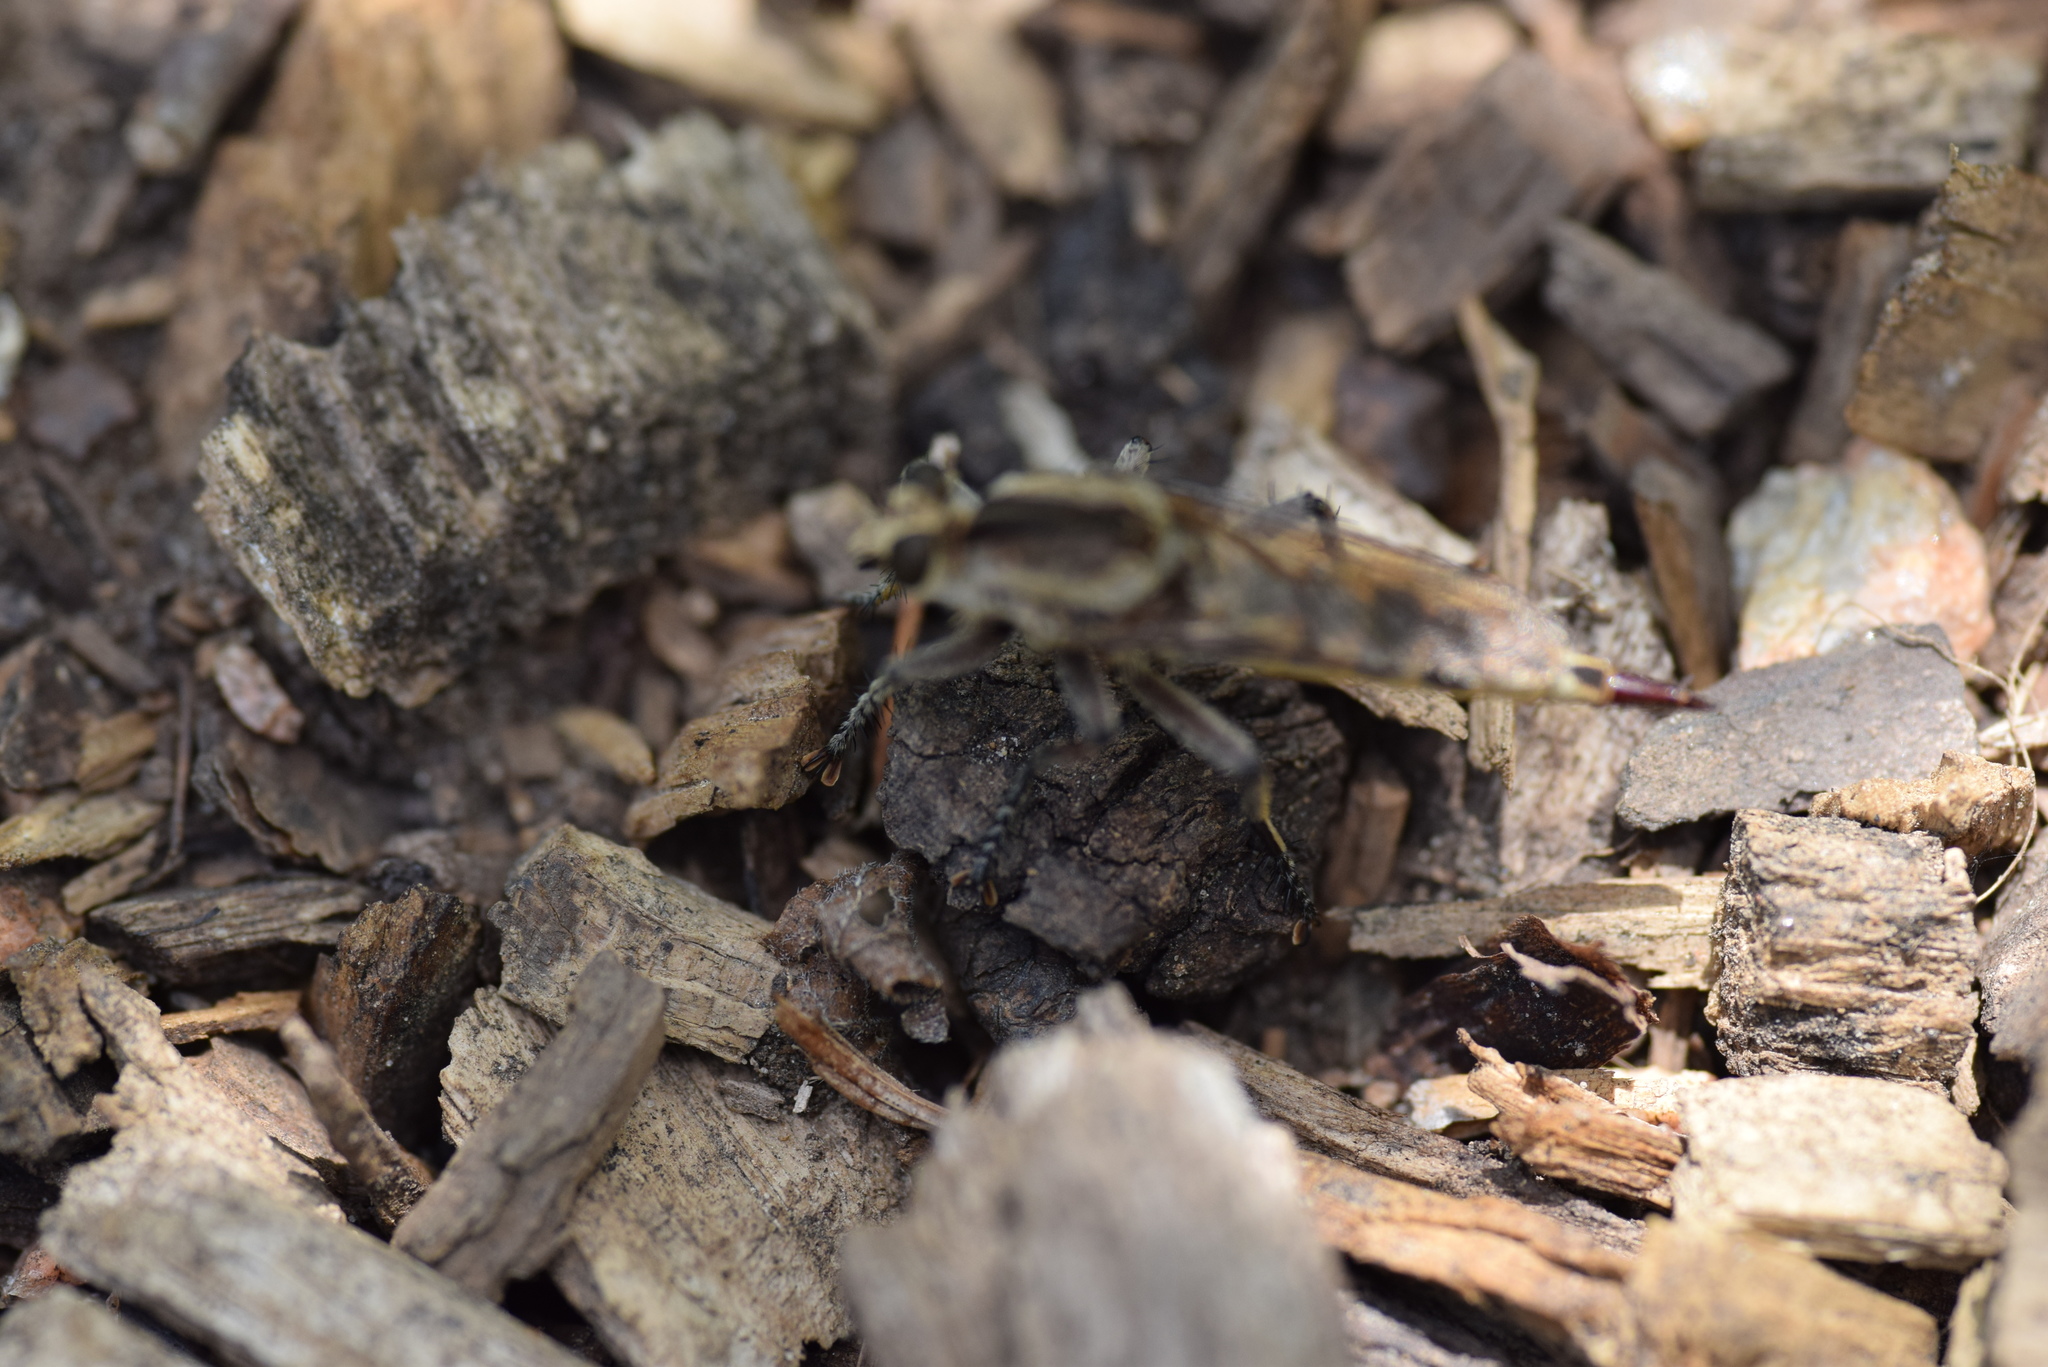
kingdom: Animalia
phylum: Arthropoda
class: Insecta
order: Diptera
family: Asilidae
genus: Triorla
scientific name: Triorla interrupta
